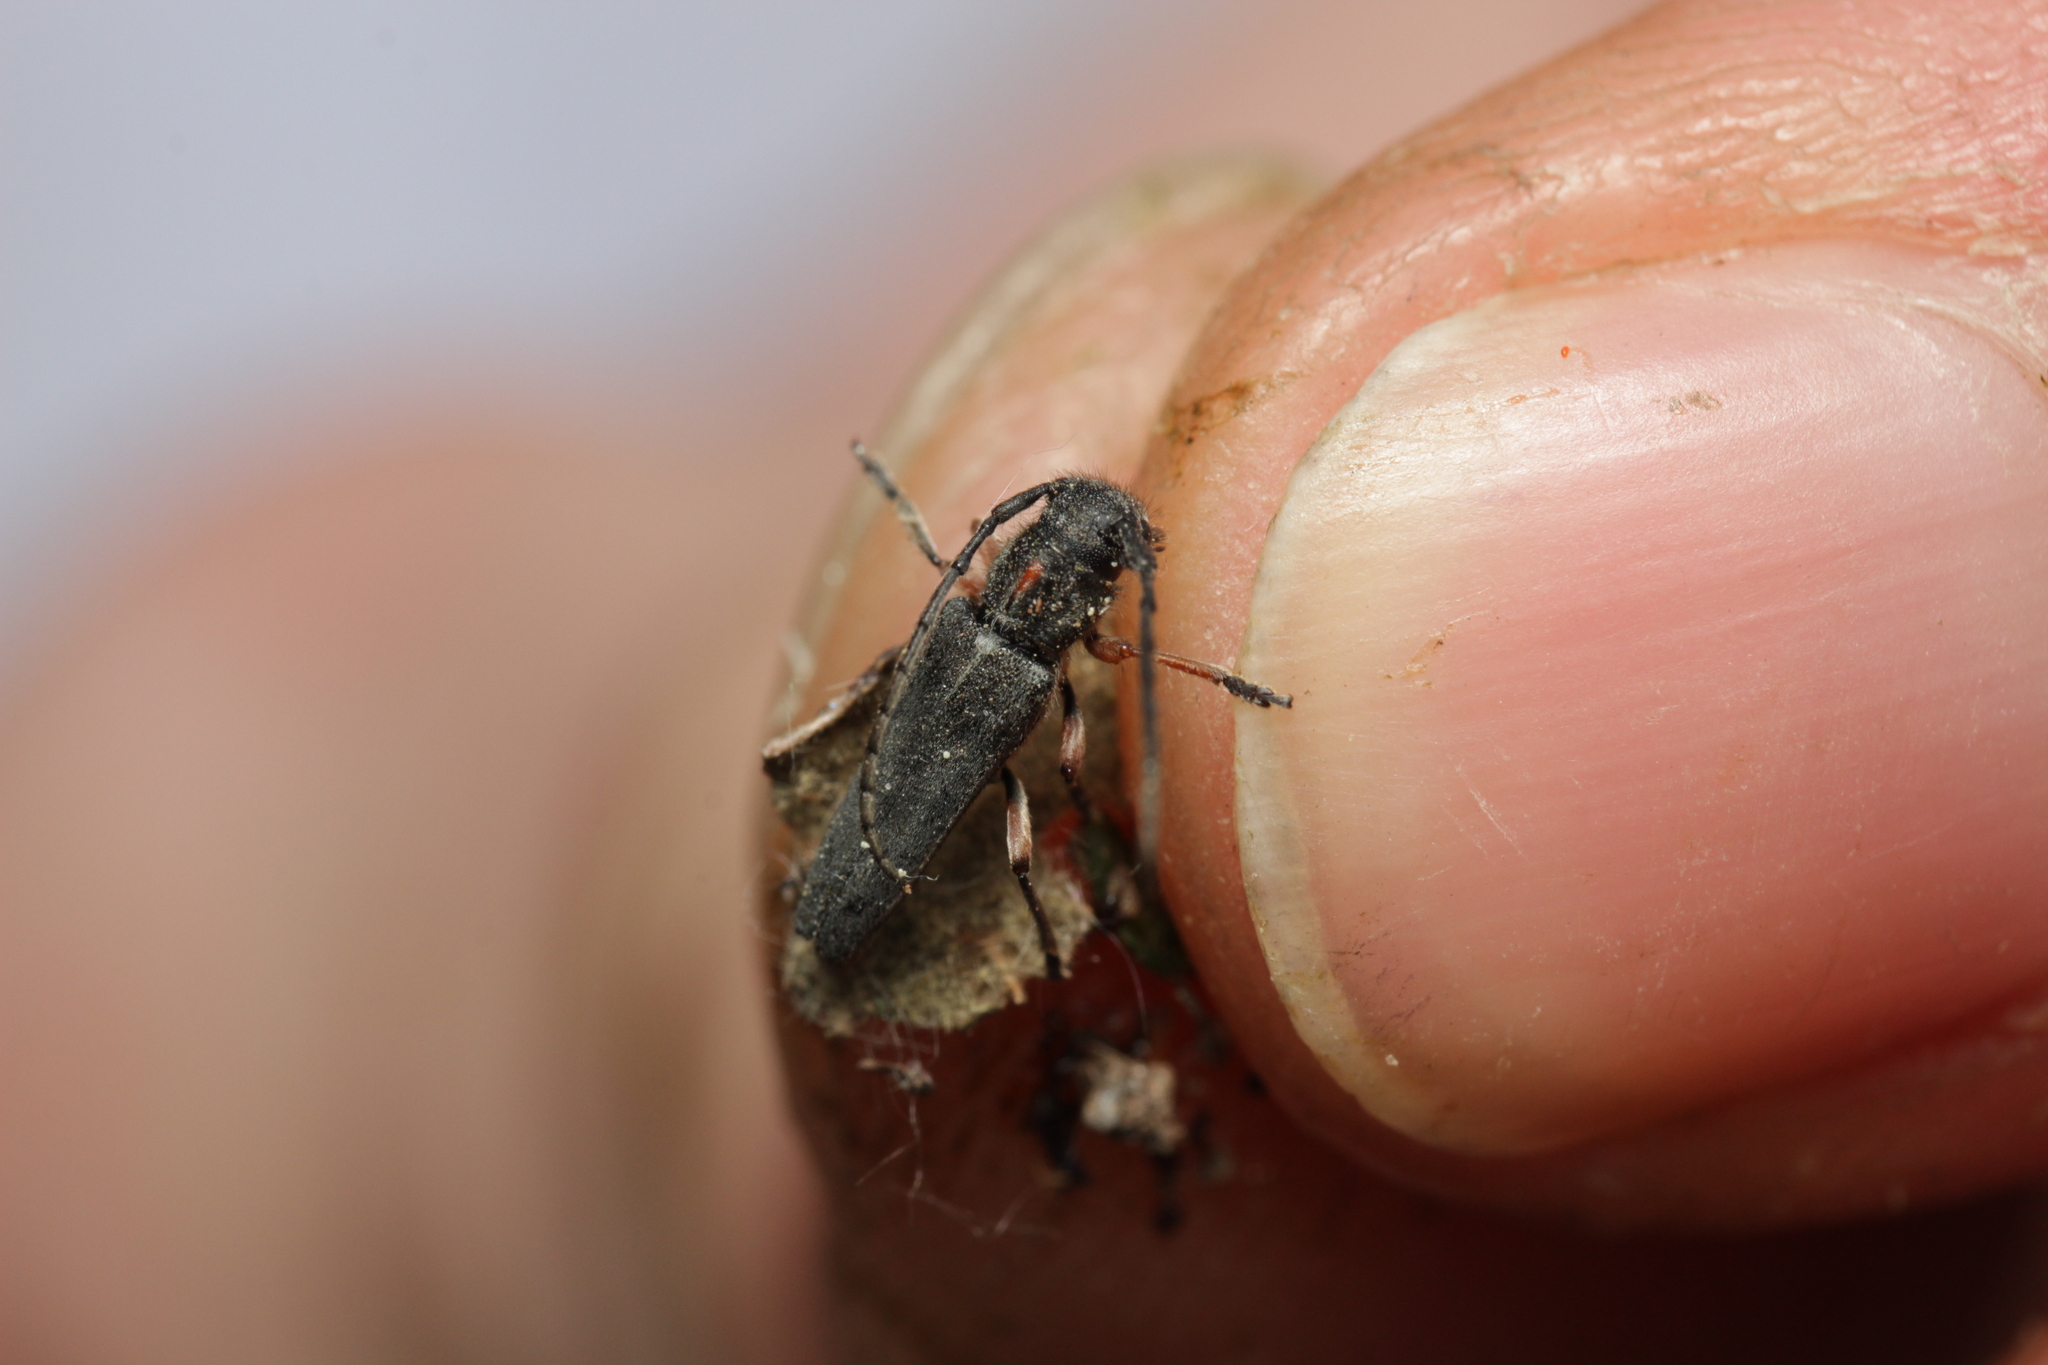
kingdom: Animalia
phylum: Arthropoda
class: Insecta
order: Coleoptera
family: Cerambycidae
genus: Phytoecia
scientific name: Phytoecia pustulata
